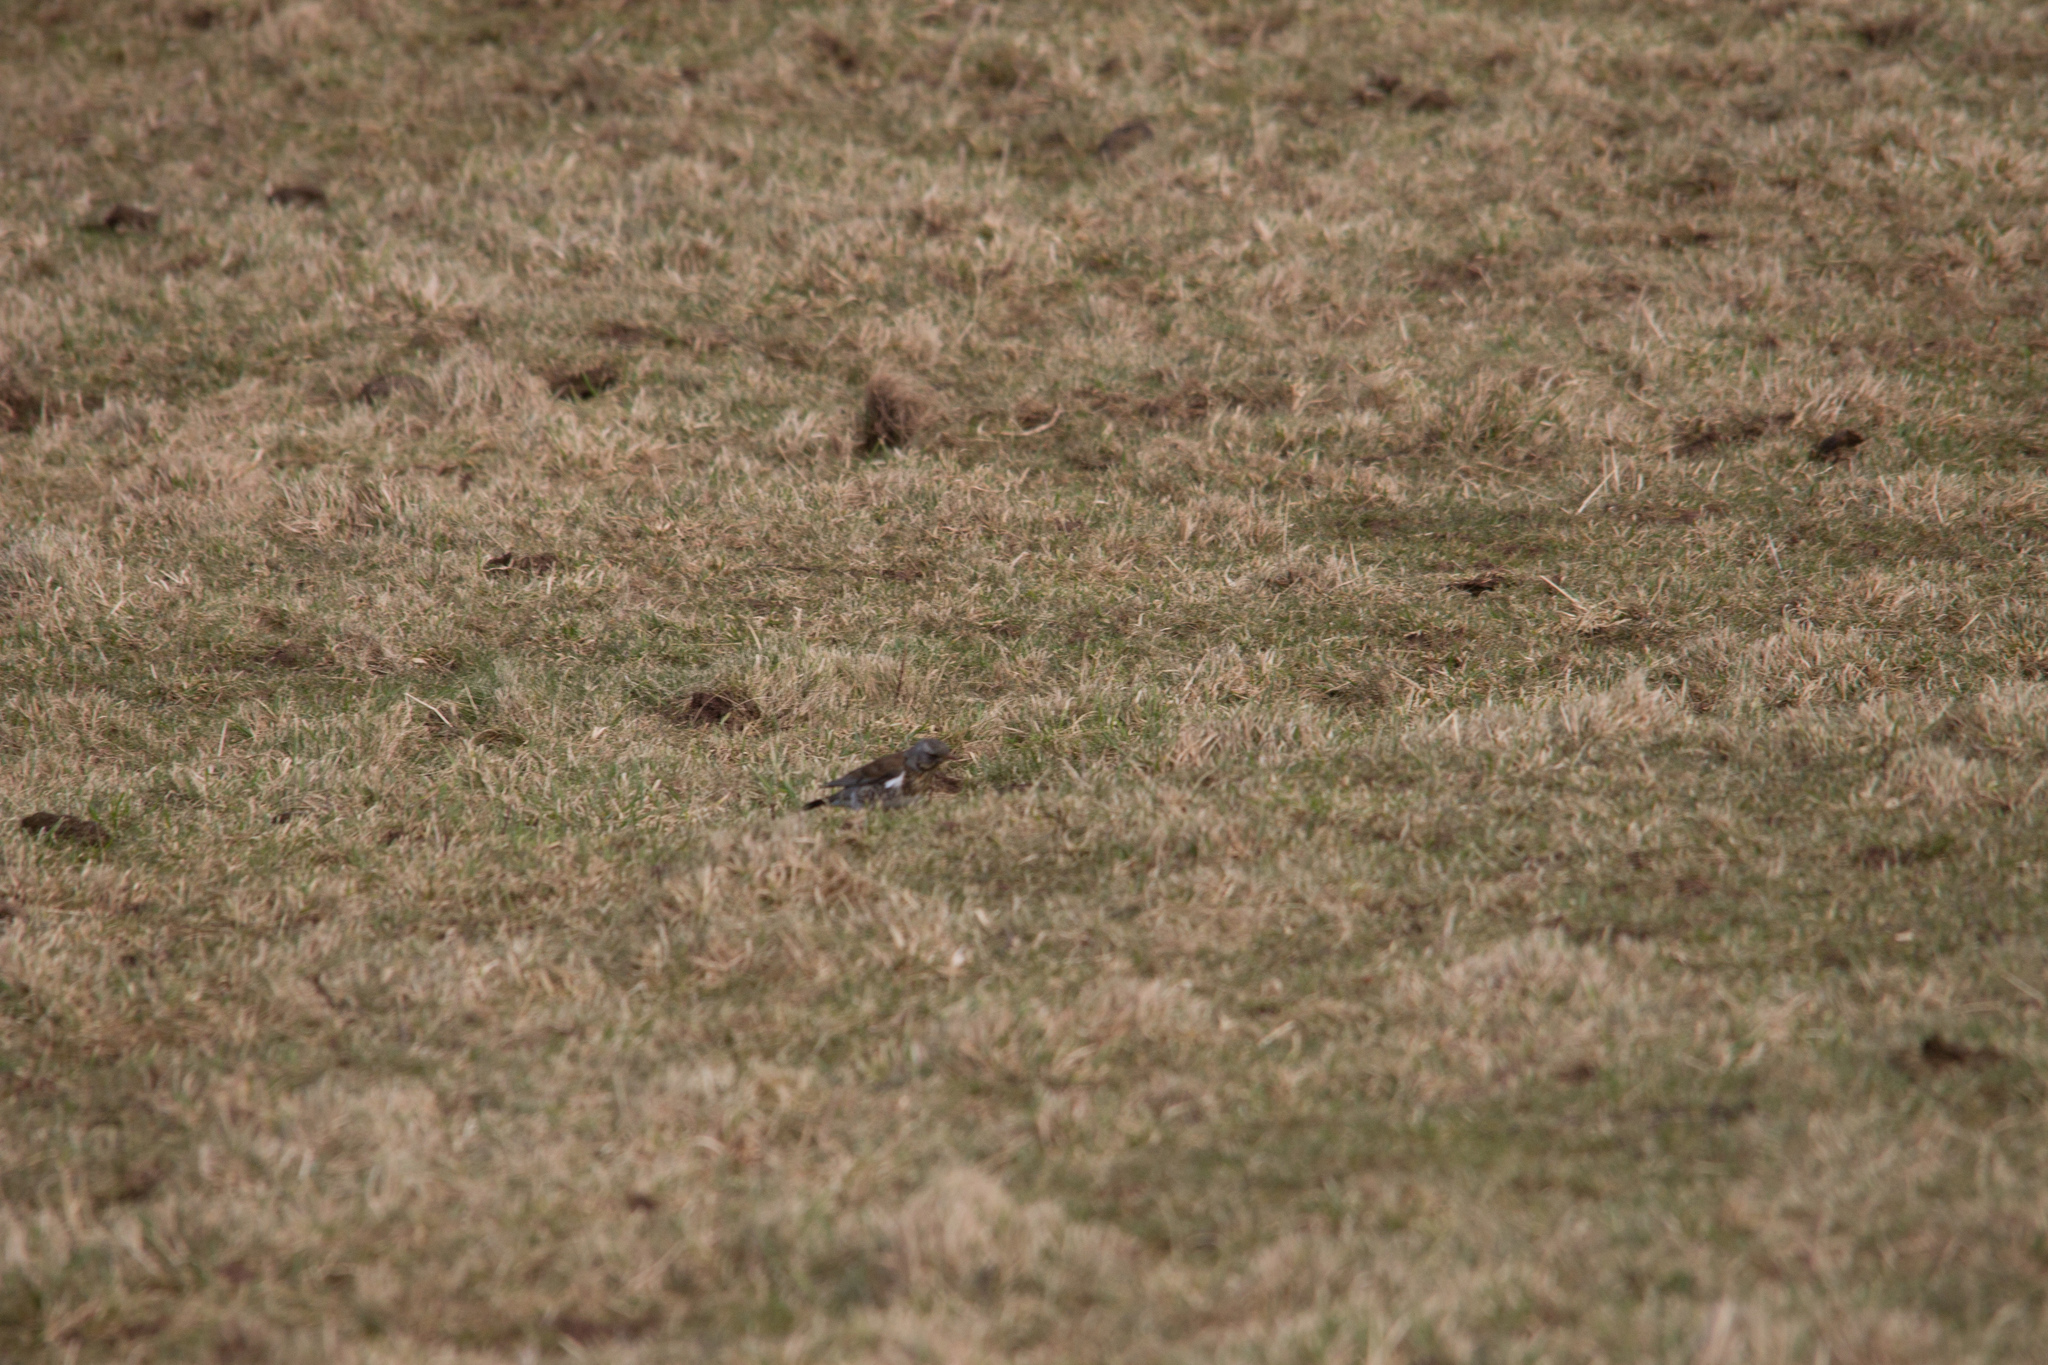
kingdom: Animalia
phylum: Chordata
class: Aves
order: Passeriformes
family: Turdidae
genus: Turdus
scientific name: Turdus pilaris
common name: Fieldfare
